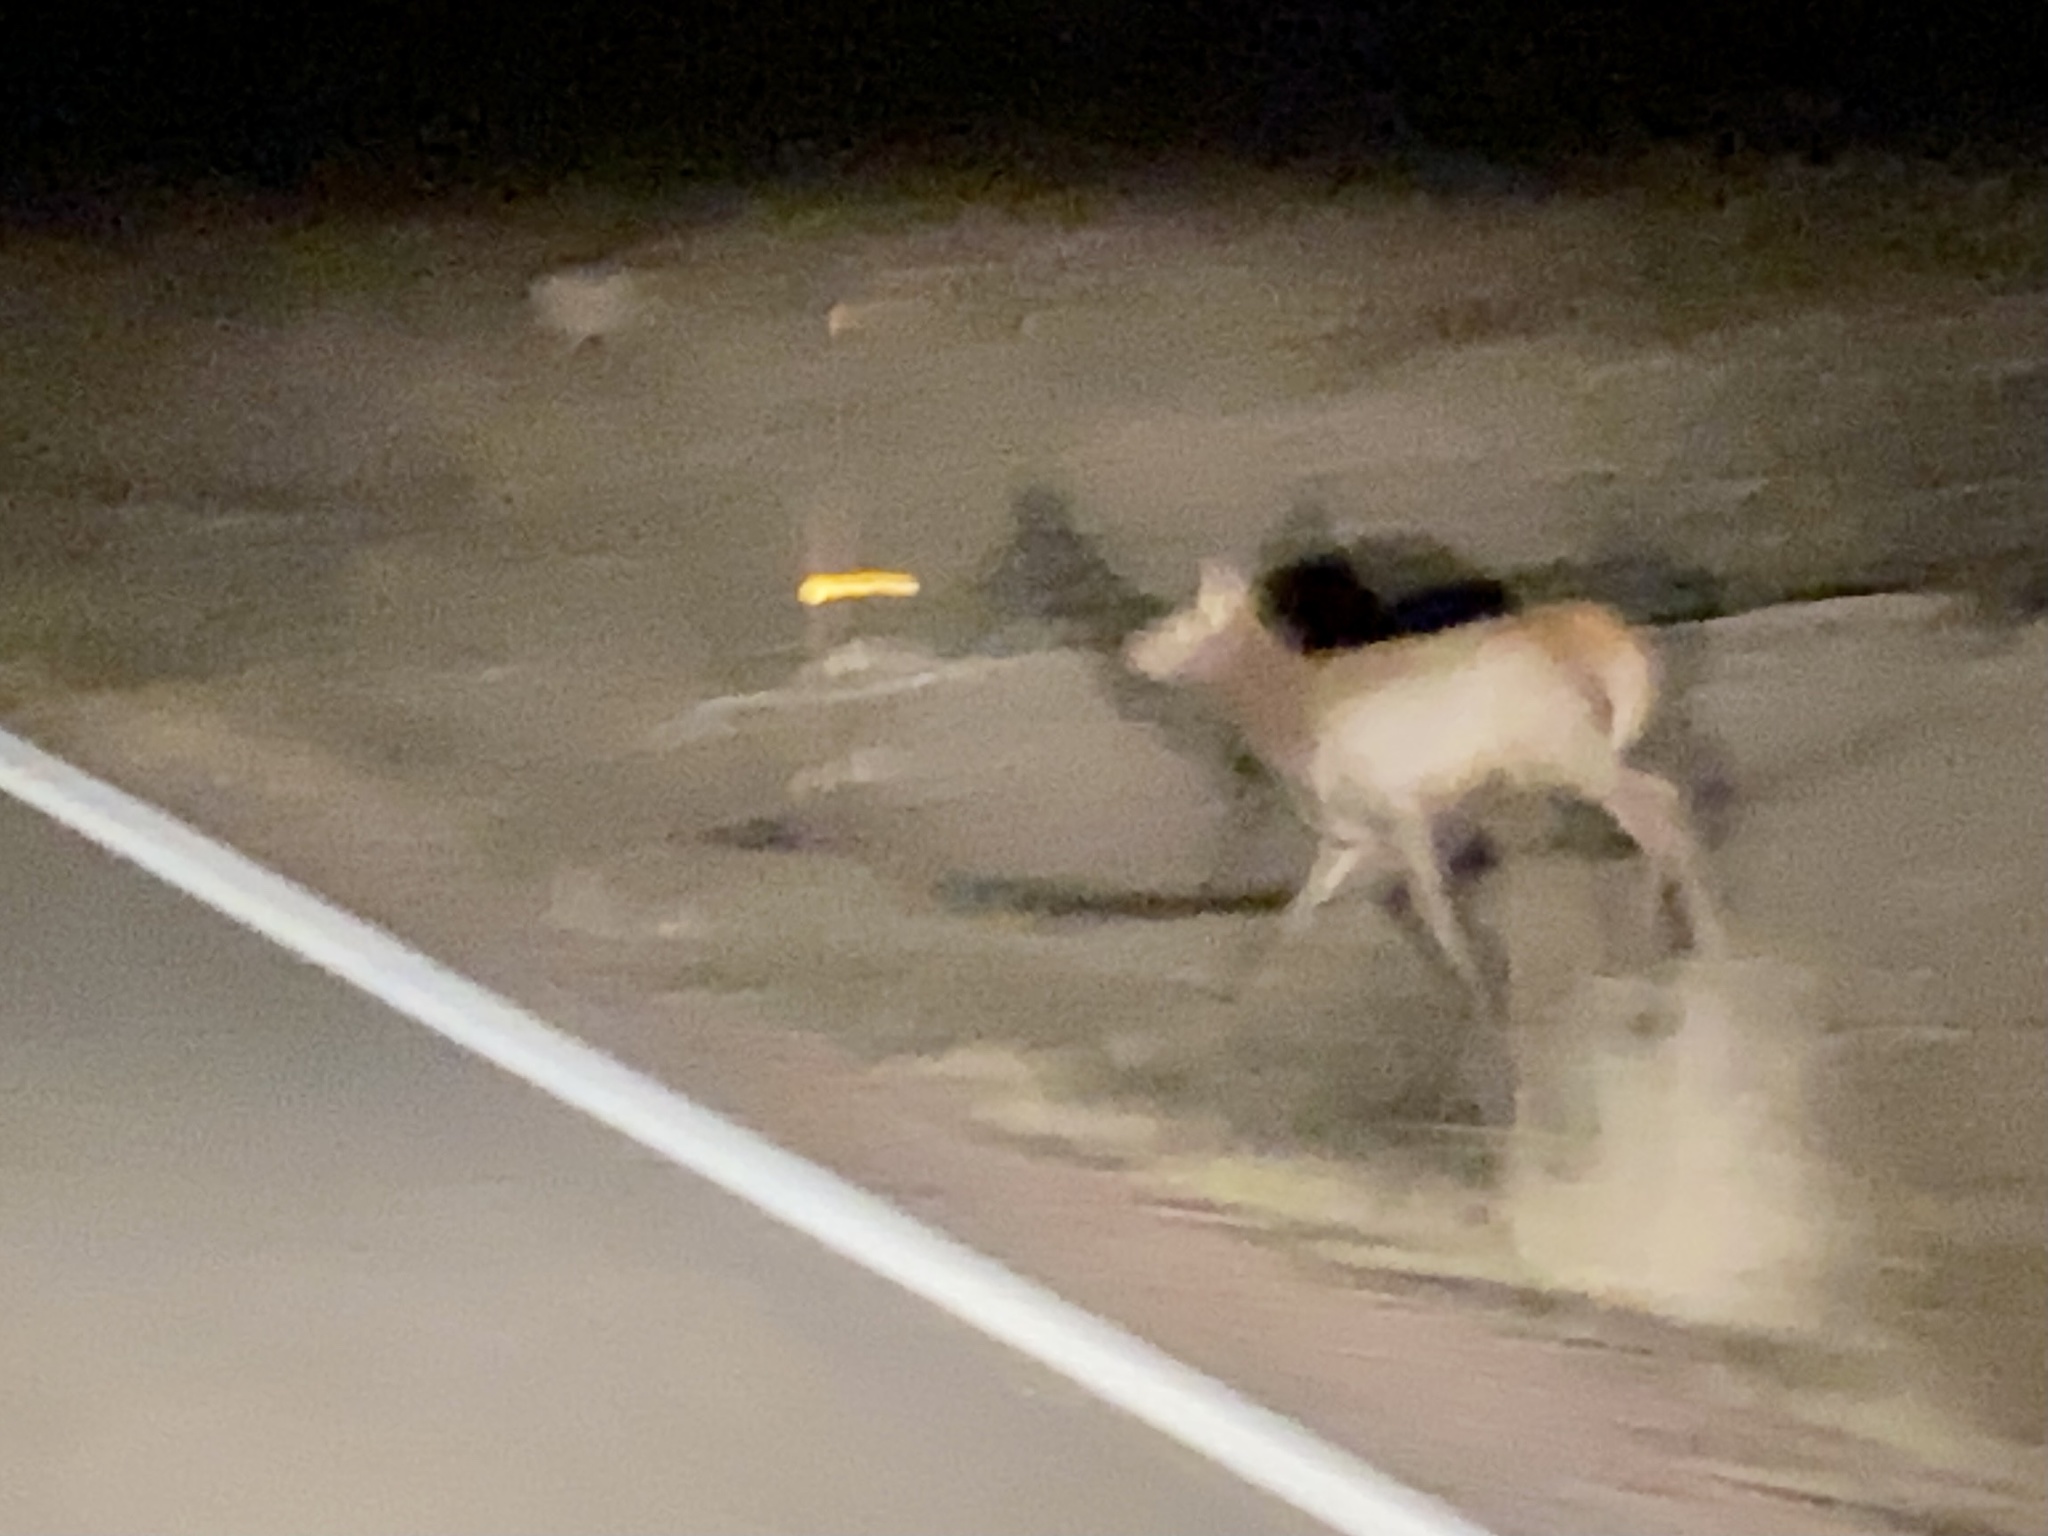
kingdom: Animalia
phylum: Chordata
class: Mammalia
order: Artiodactyla
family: Cervidae
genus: Cervus
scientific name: Cervus elaphus
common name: Red deer
